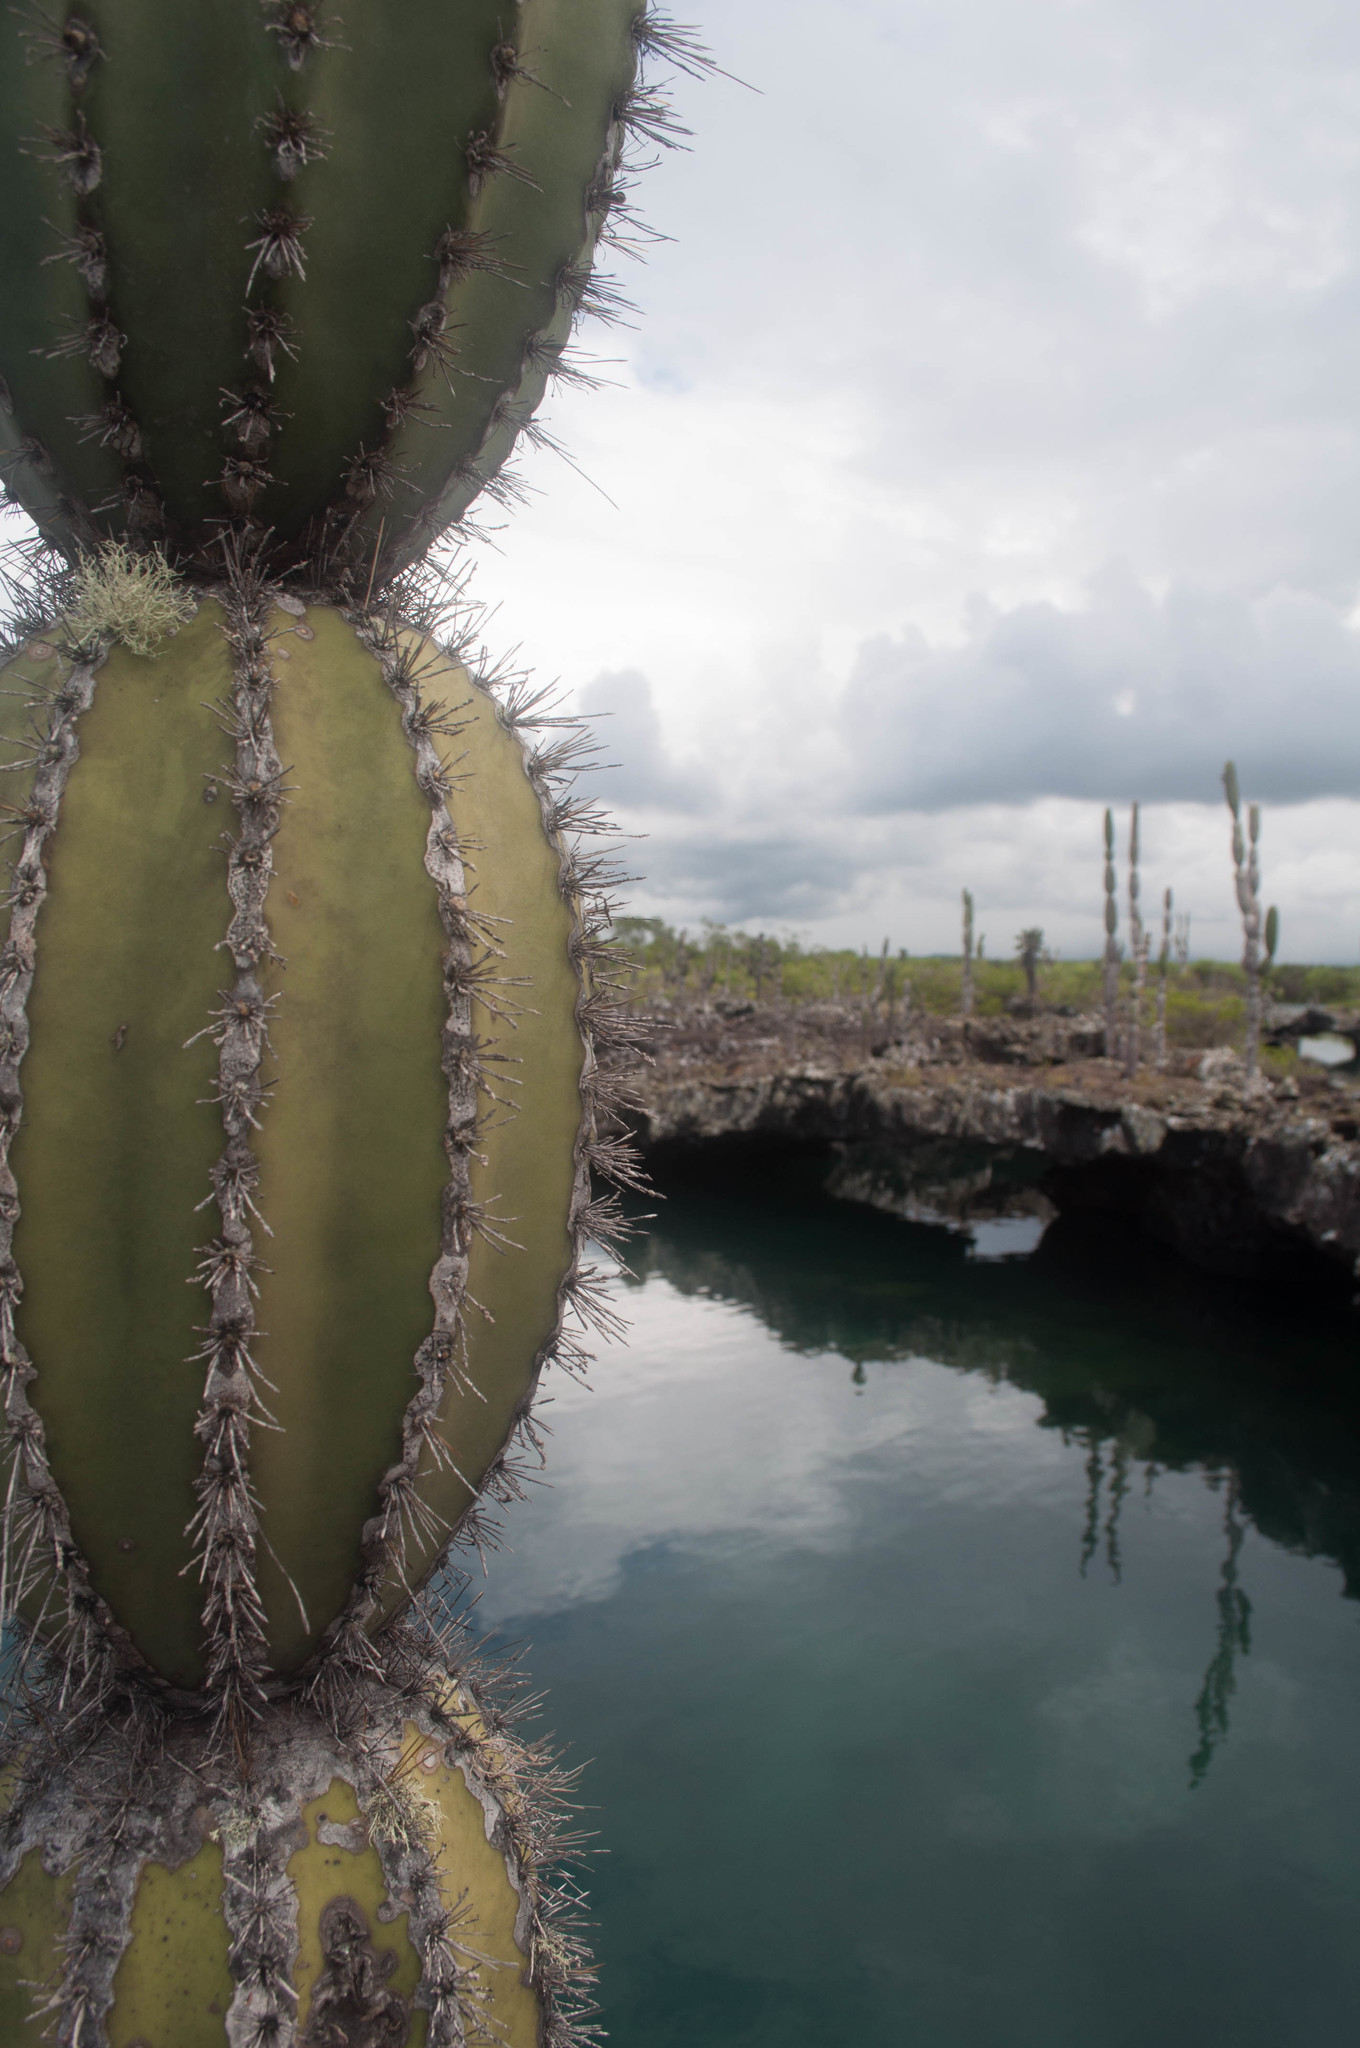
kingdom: Plantae
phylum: Tracheophyta
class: Magnoliopsida
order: Caryophyllales
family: Cactaceae
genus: Jasminocereus
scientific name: Jasminocereus thouarsii
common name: Candelabra cactus
